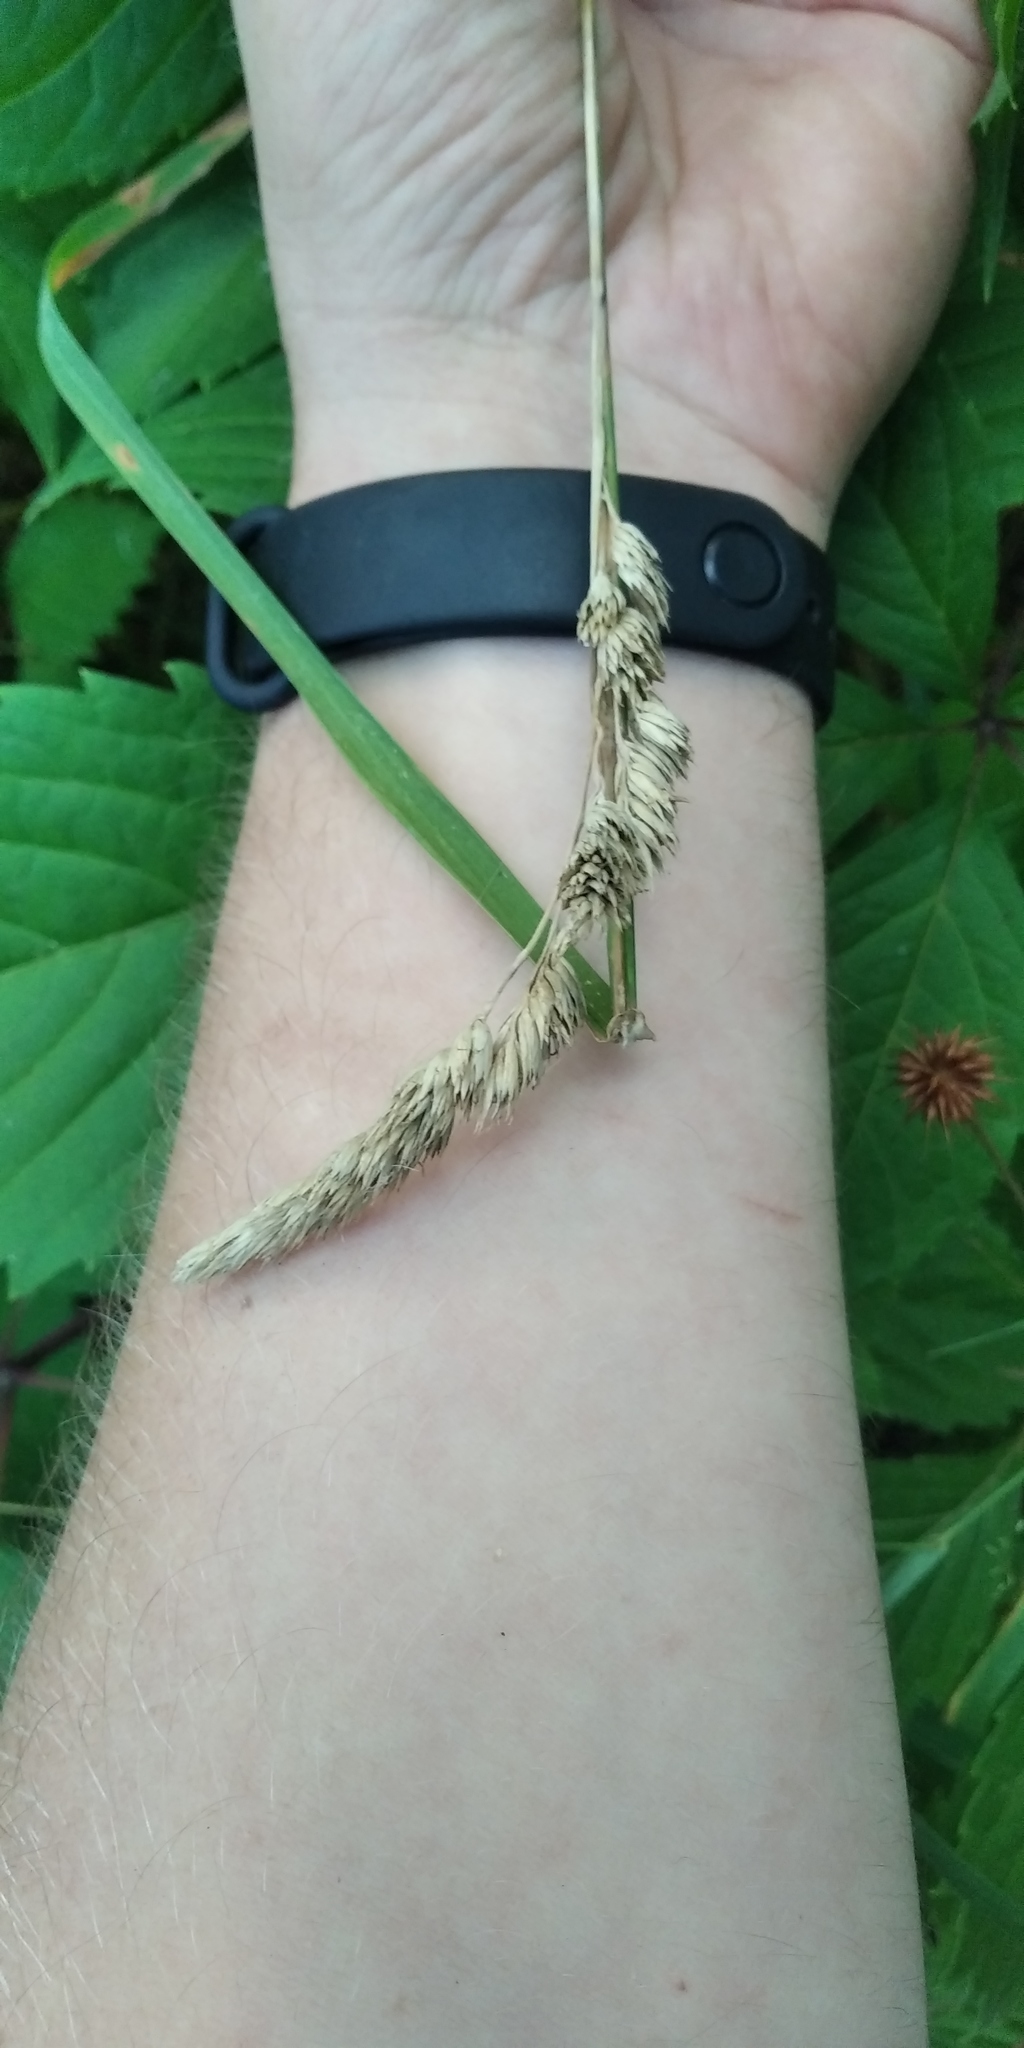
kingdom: Plantae
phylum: Tracheophyta
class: Liliopsida
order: Poales
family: Poaceae
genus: Dactylis
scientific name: Dactylis glomerata
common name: Orchardgrass
